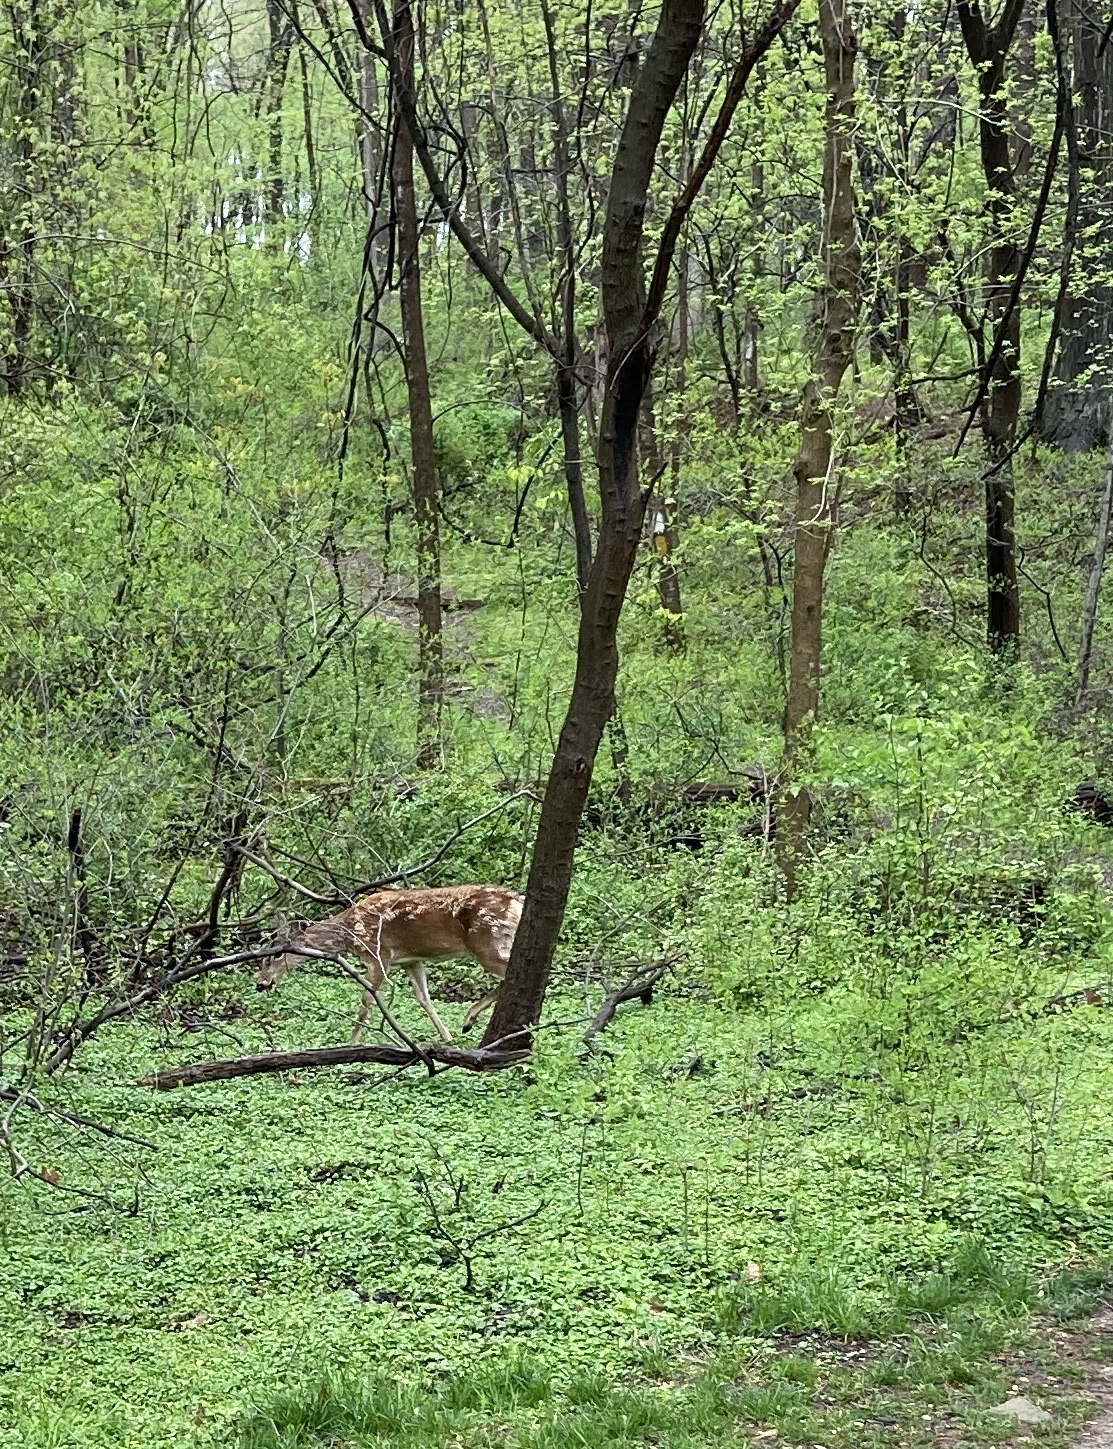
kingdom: Animalia
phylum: Chordata
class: Mammalia
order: Artiodactyla
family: Cervidae
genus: Odocoileus
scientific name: Odocoileus virginianus
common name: White-tailed deer
